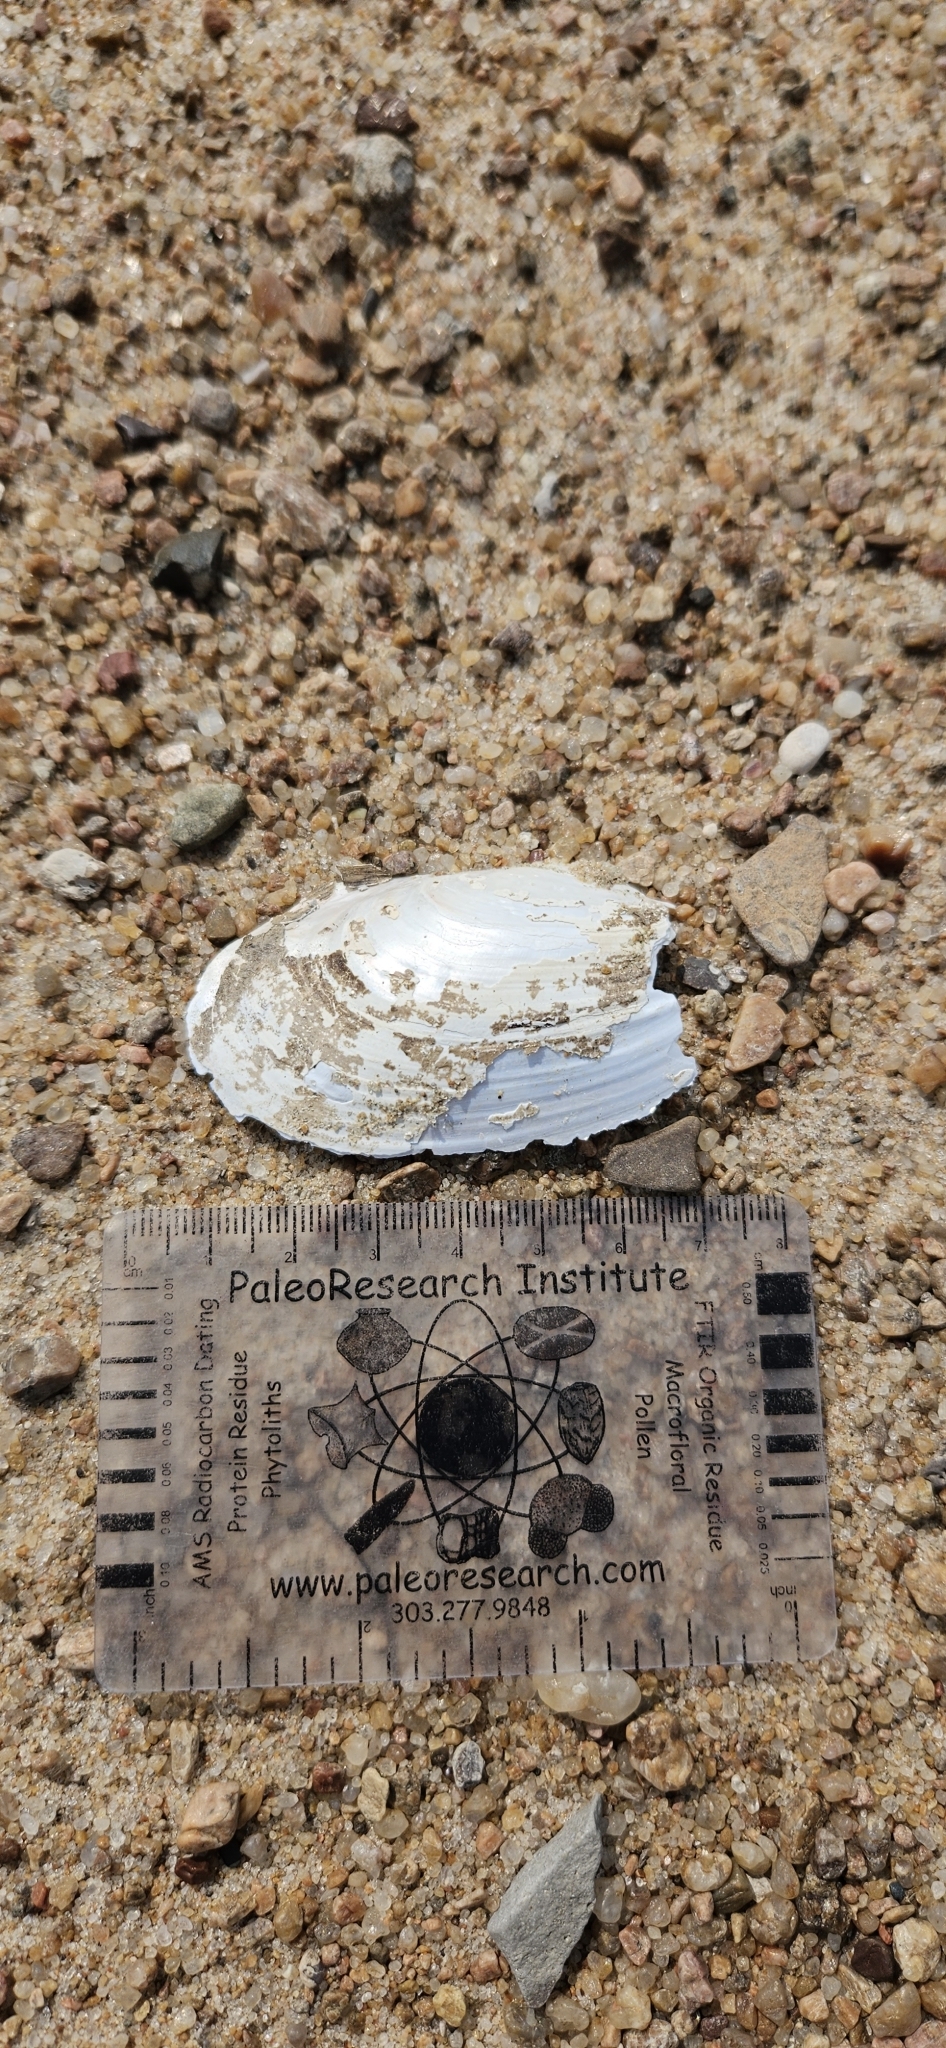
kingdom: Animalia
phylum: Mollusca
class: Bivalvia
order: Unionida
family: Unionidae
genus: Potamilus
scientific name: Potamilus fragilis
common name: Fragile papershell
